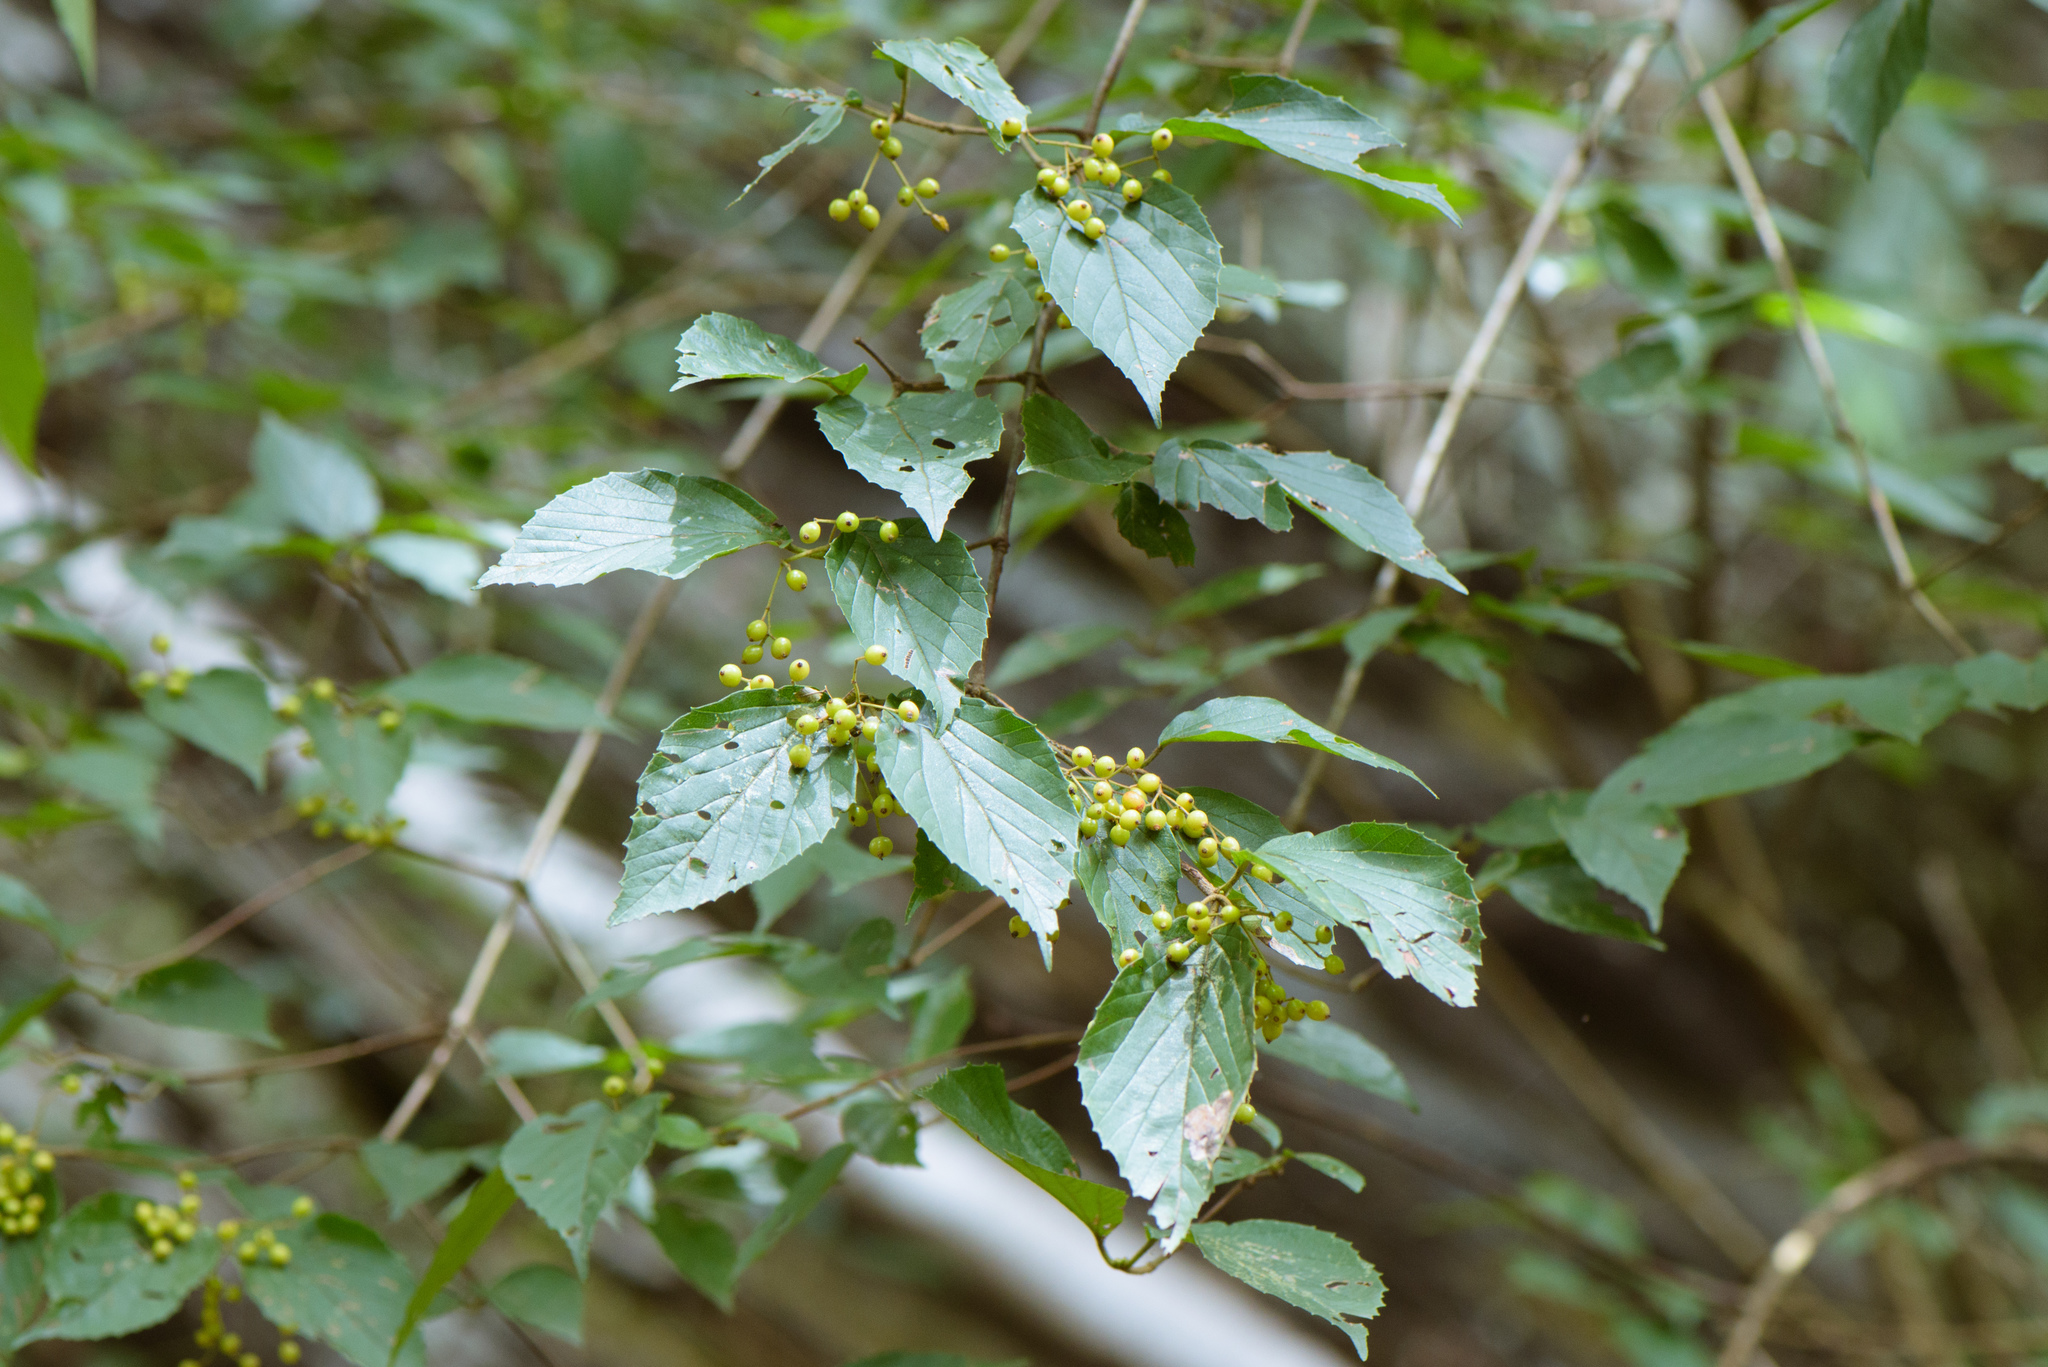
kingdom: Plantae
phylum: Tracheophyta
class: Magnoliopsida
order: Dipsacales
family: Viburnaceae
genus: Viburnum
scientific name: Viburnum luzonicum
